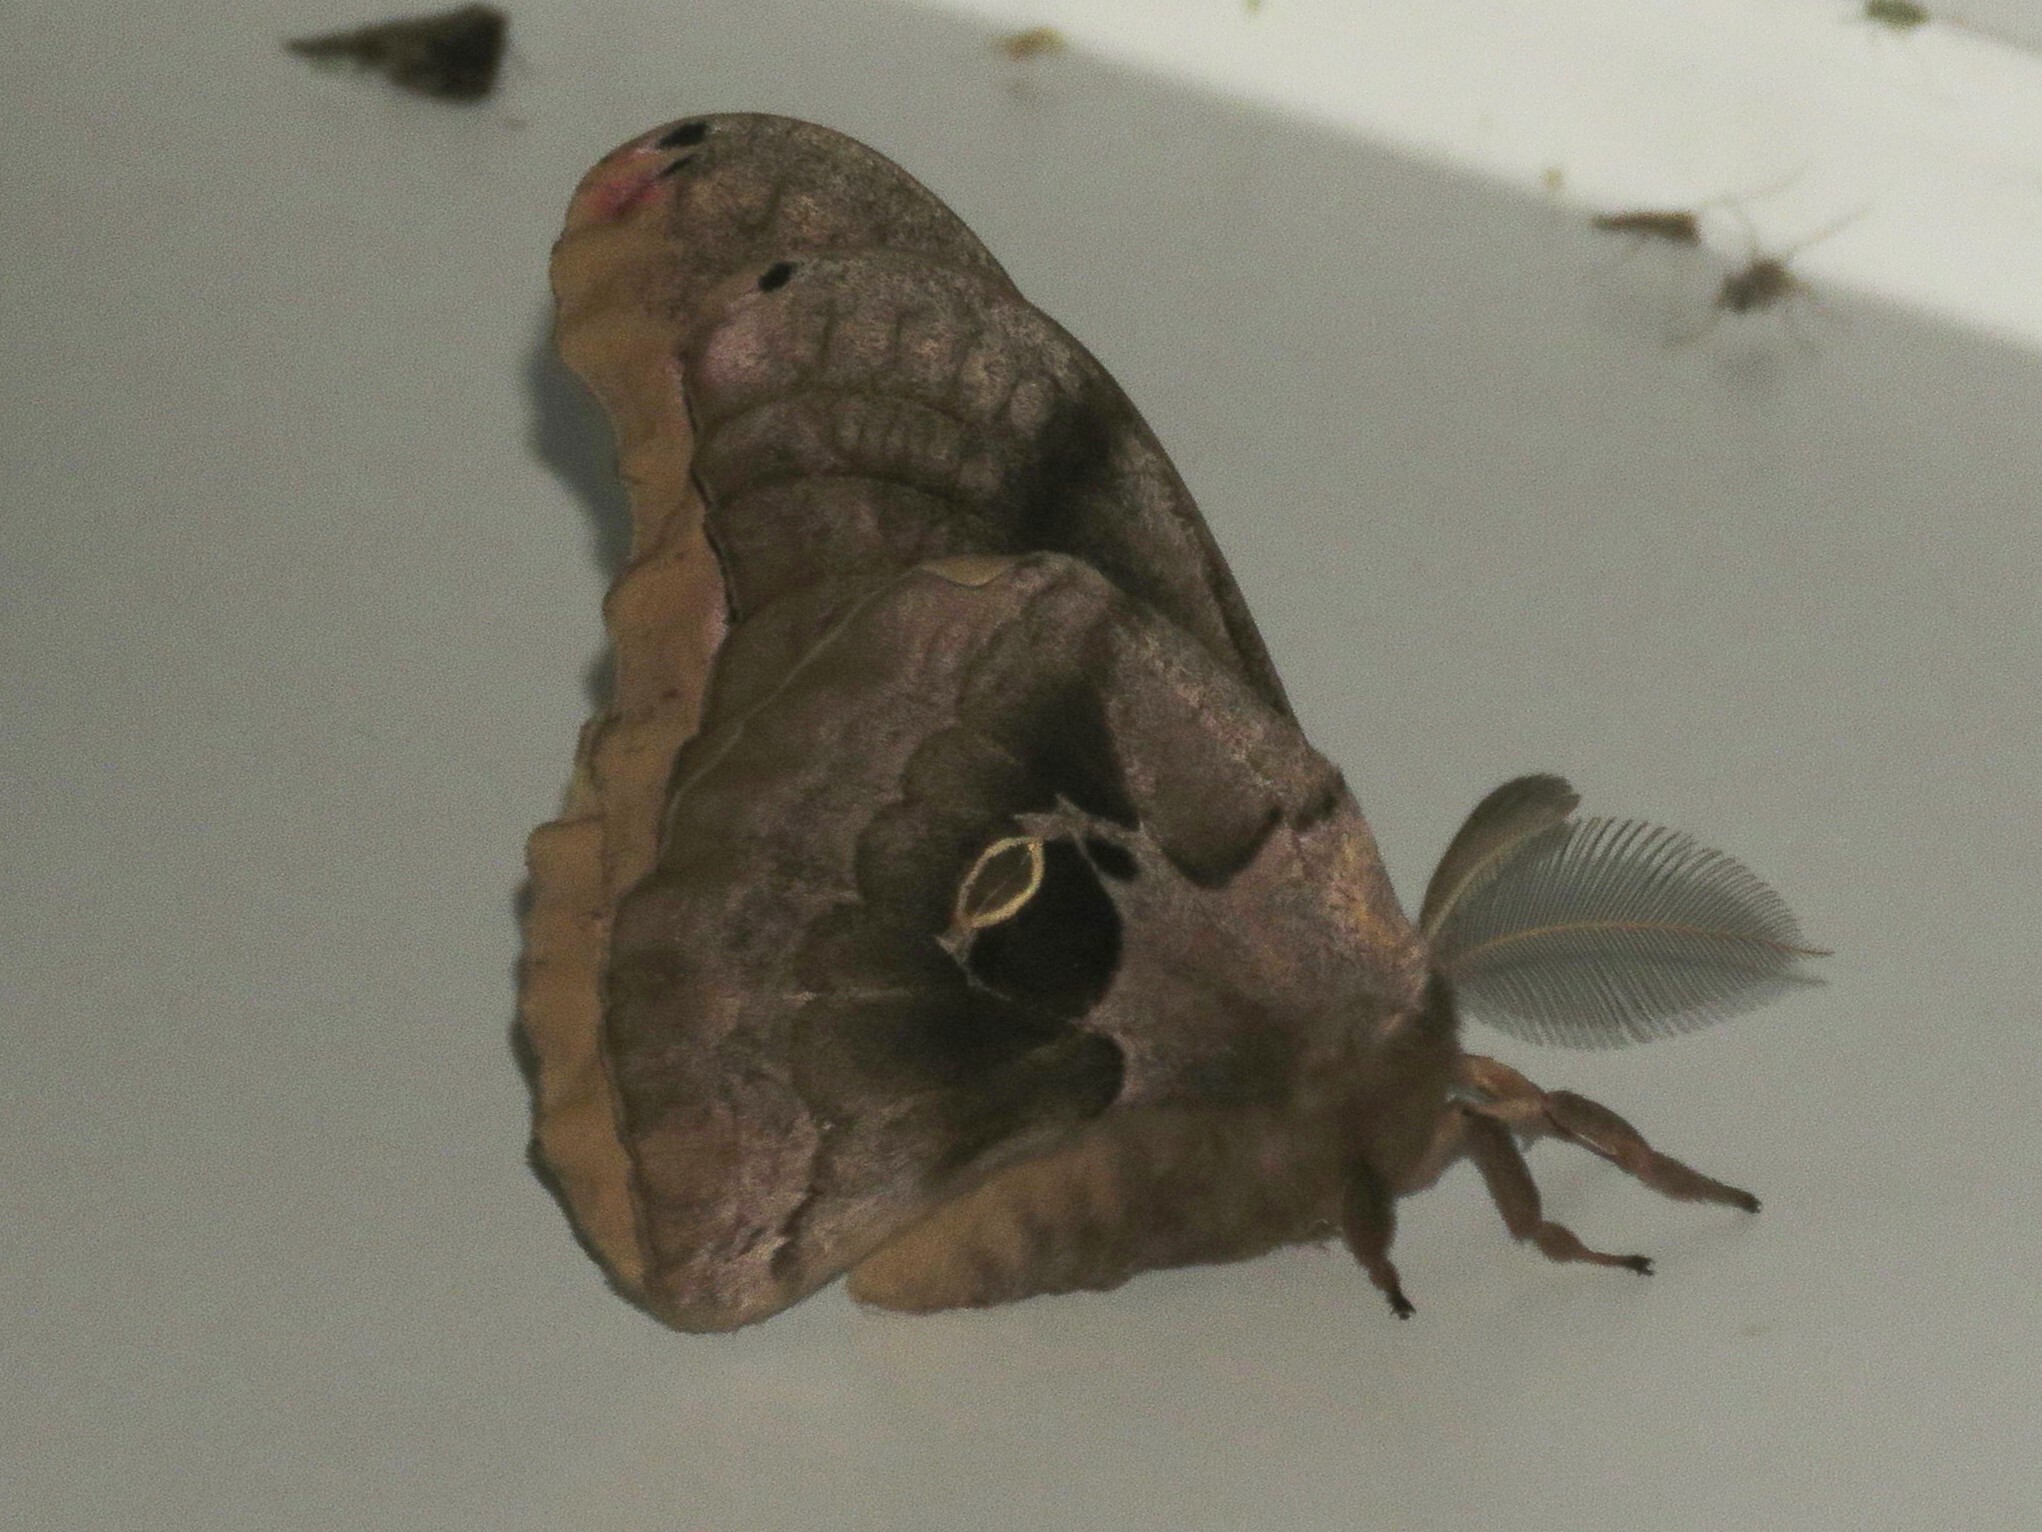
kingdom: Animalia
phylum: Arthropoda
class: Insecta
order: Lepidoptera
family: Saturniidae
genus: Antheraea
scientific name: Antheraea polyphemus
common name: Polyphemus moth
